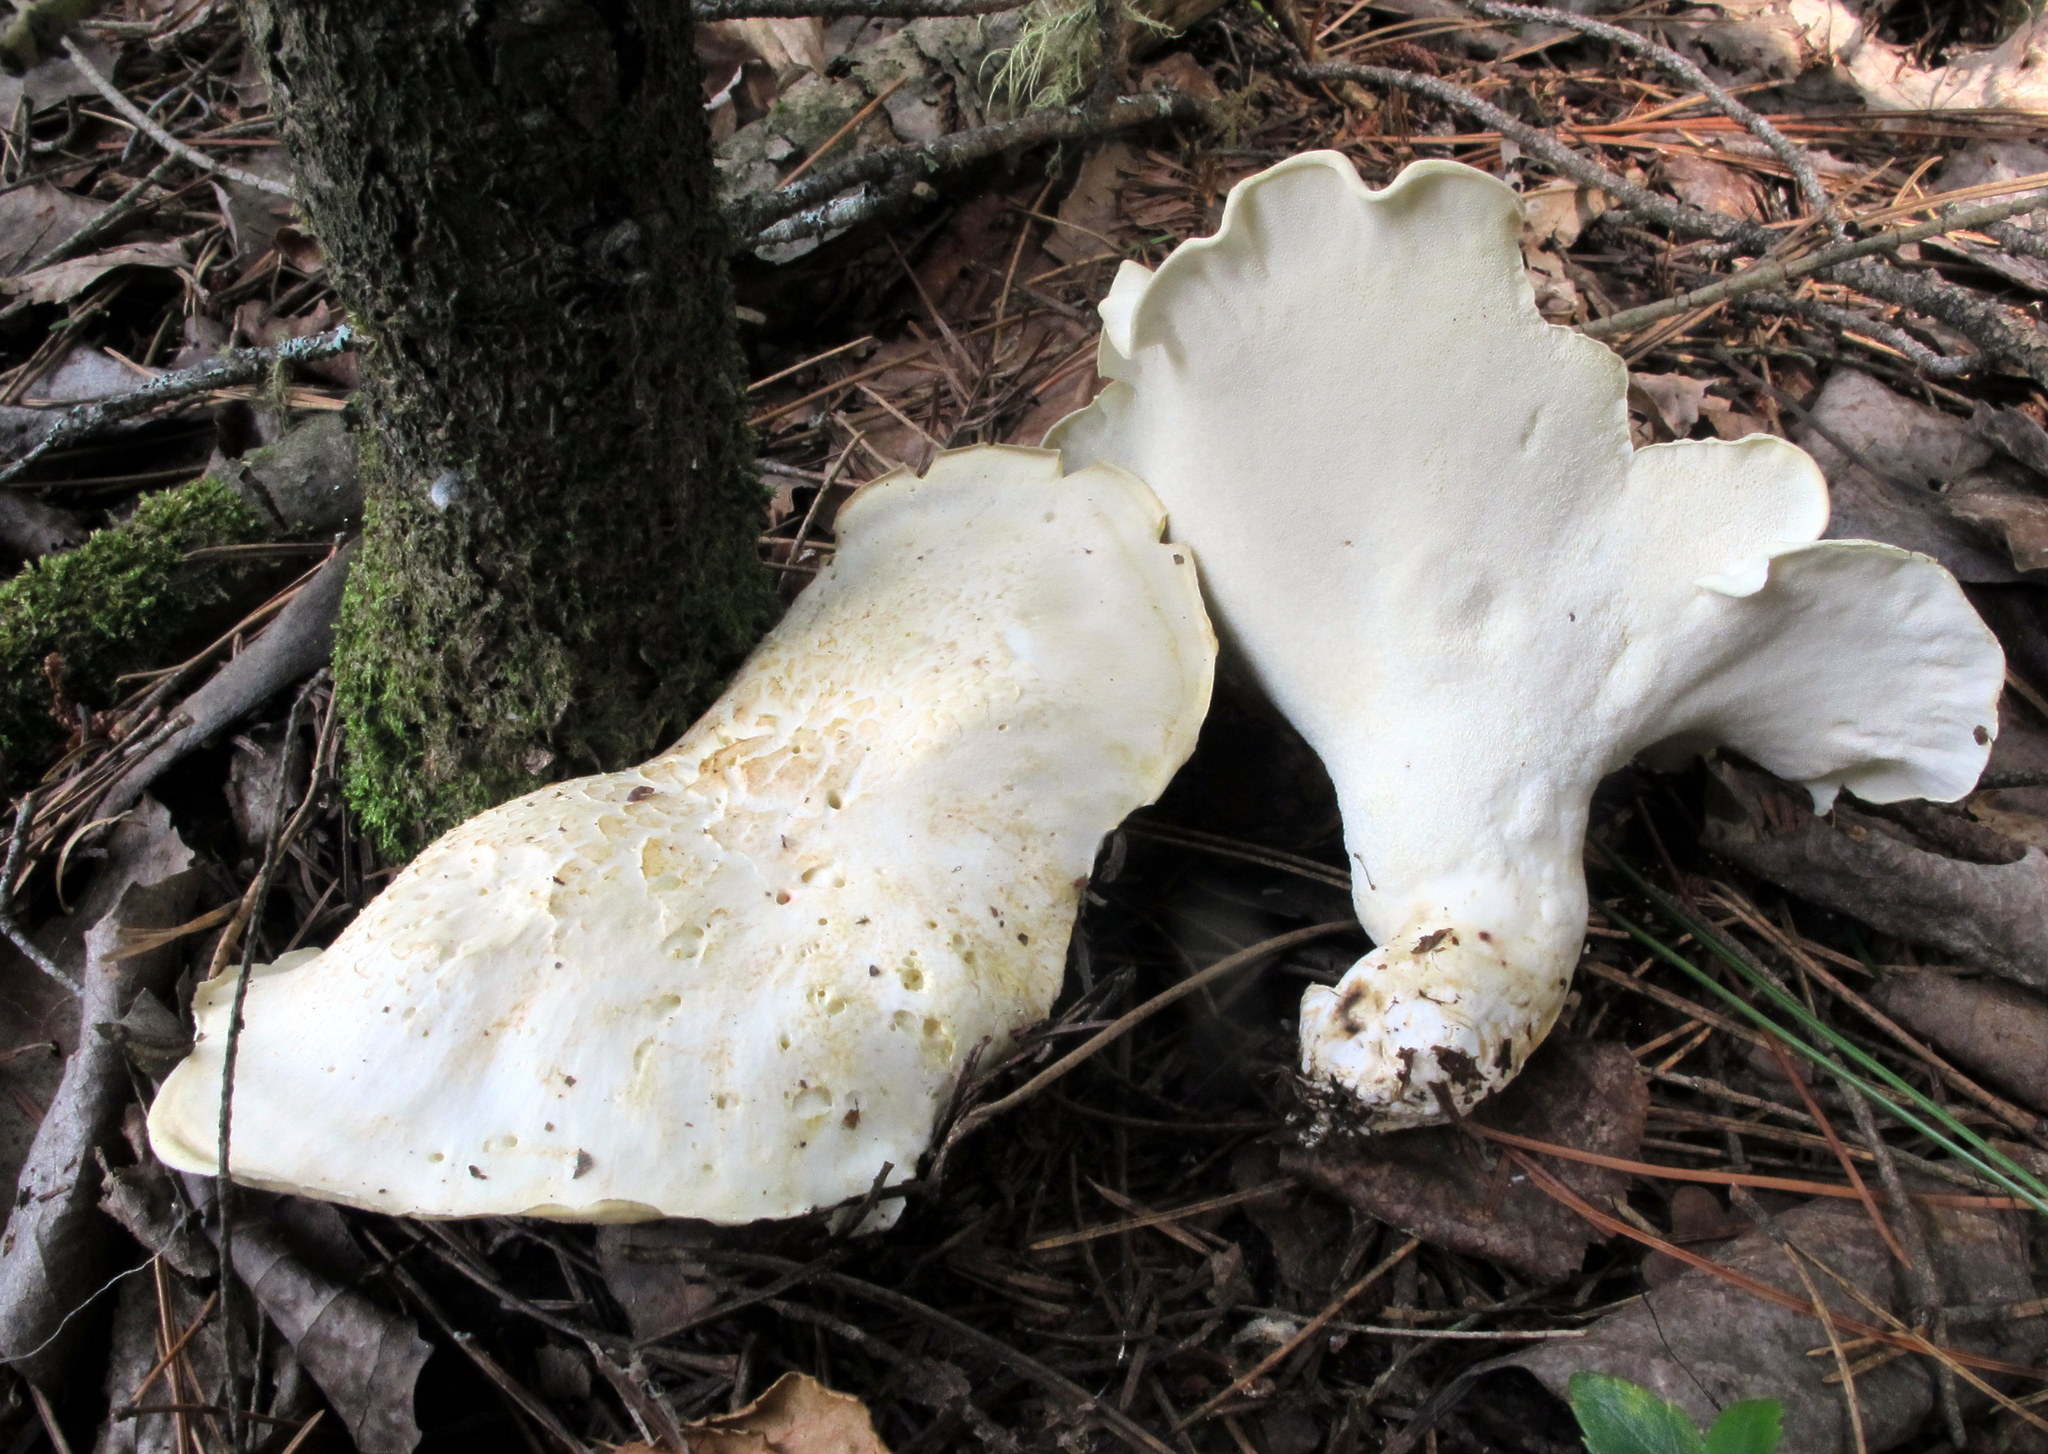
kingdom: Fungi
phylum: Basidiomycota
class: Agaricomycetes
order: Russulales
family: Albatrellaceae
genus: Albatrellus
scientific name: Albatrellus ovinus
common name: Forest lamb
